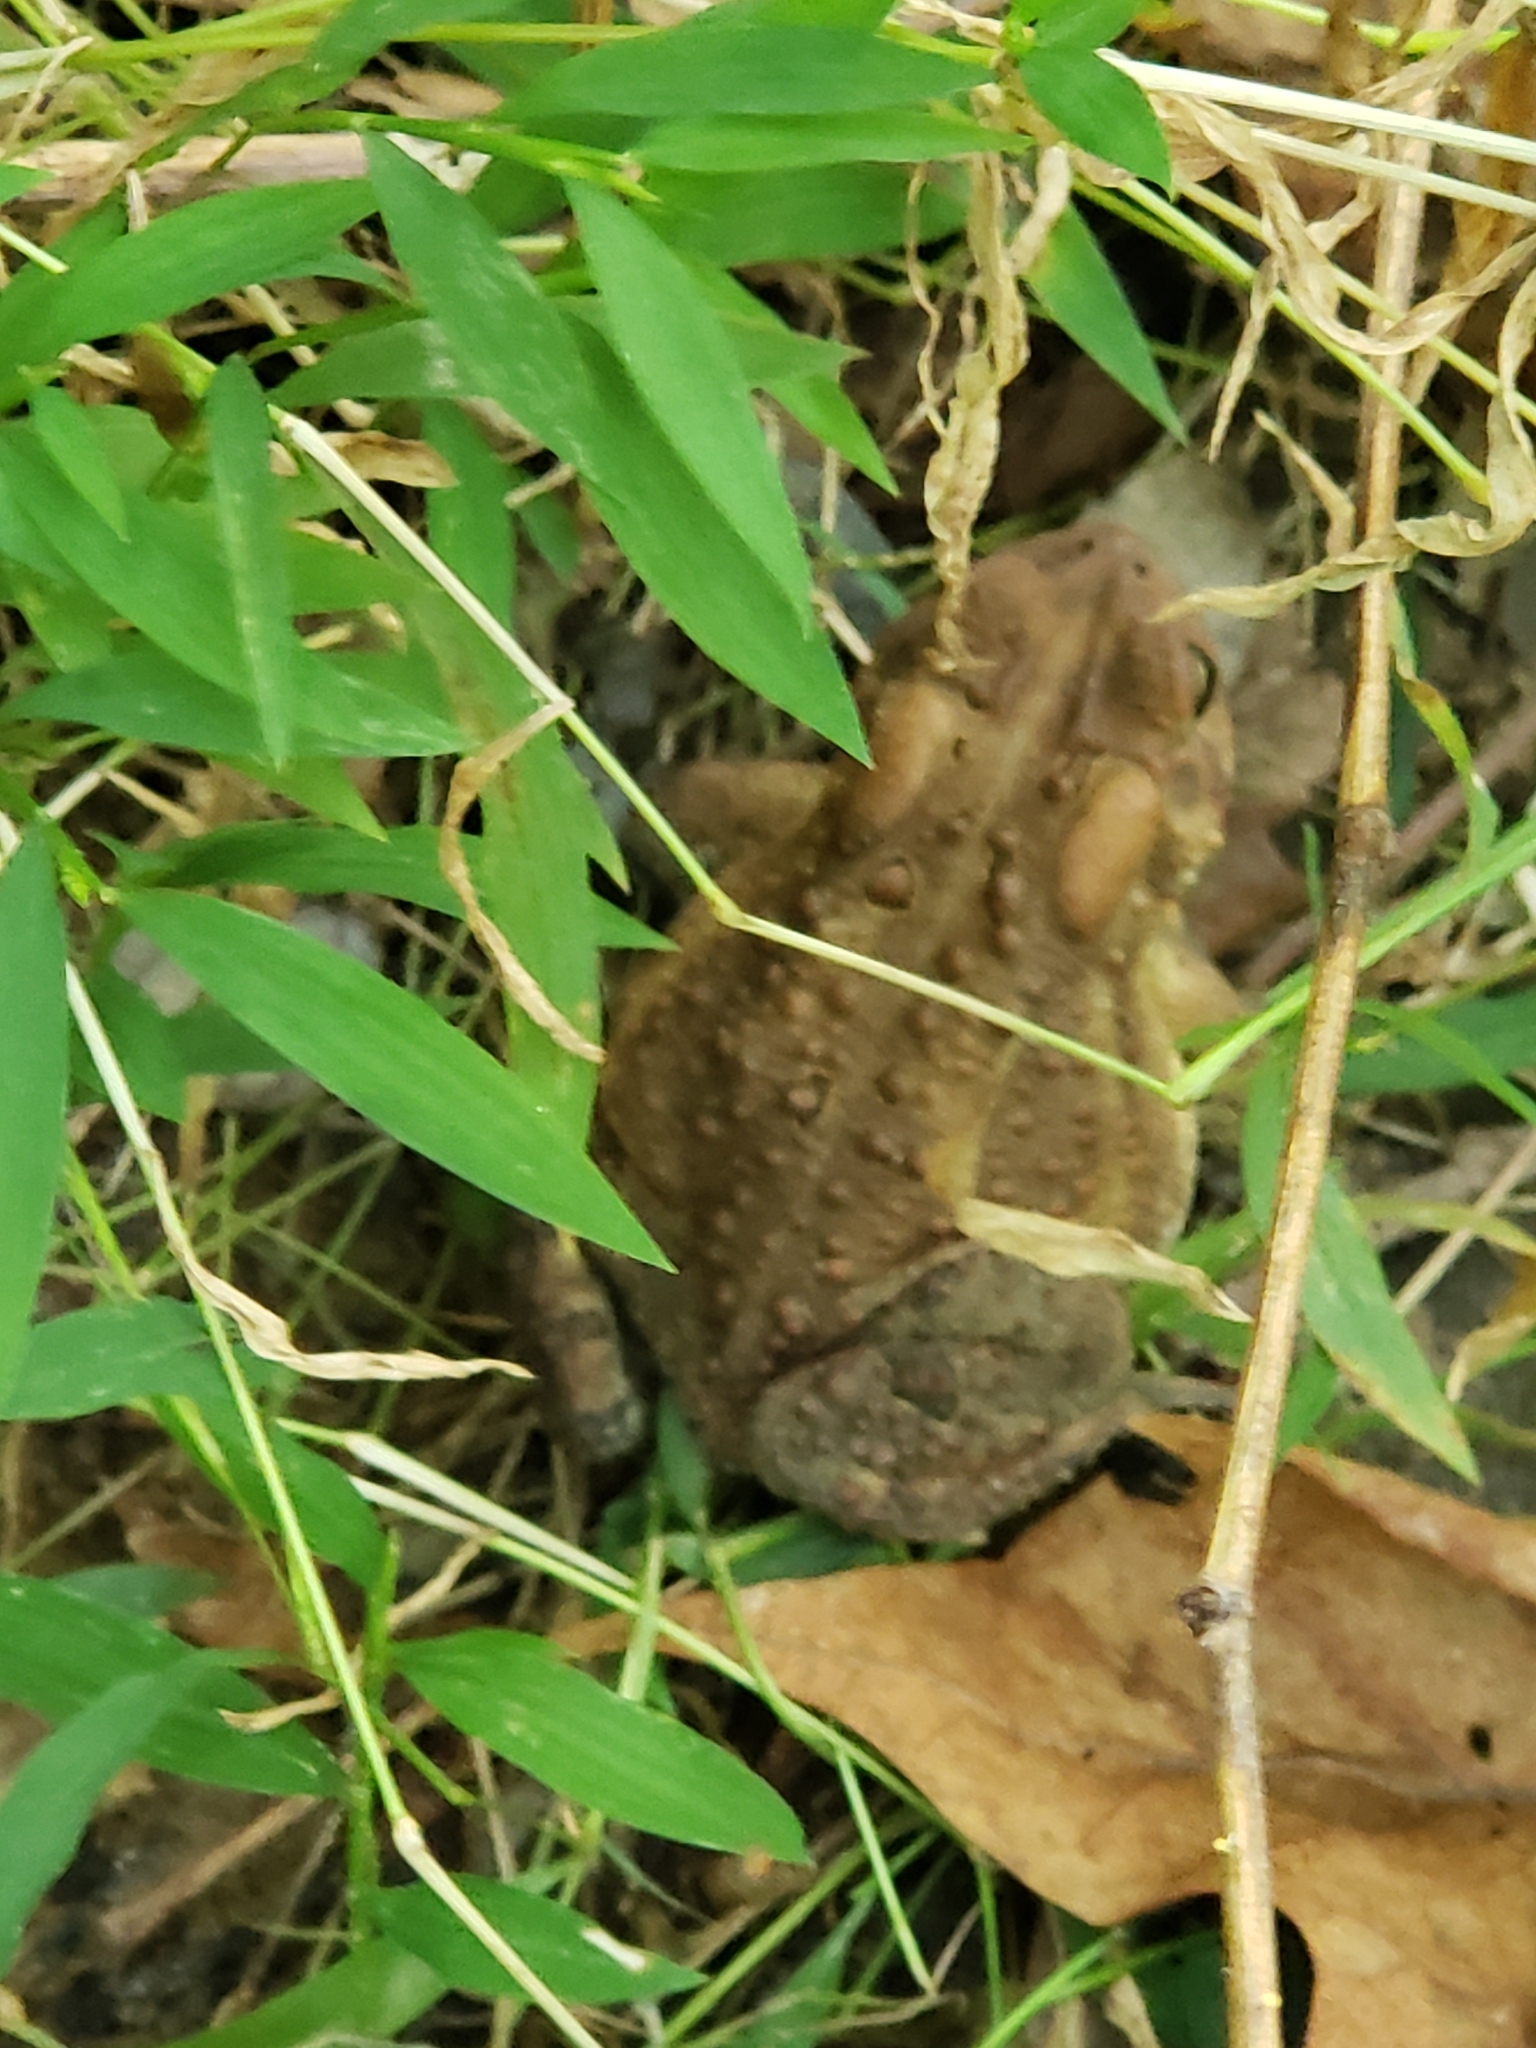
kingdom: Animalia
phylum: Chordata
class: Amphibia
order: Anura
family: Bufonidae
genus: Anaxyrus
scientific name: Anaxyrus americanus
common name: American toad
